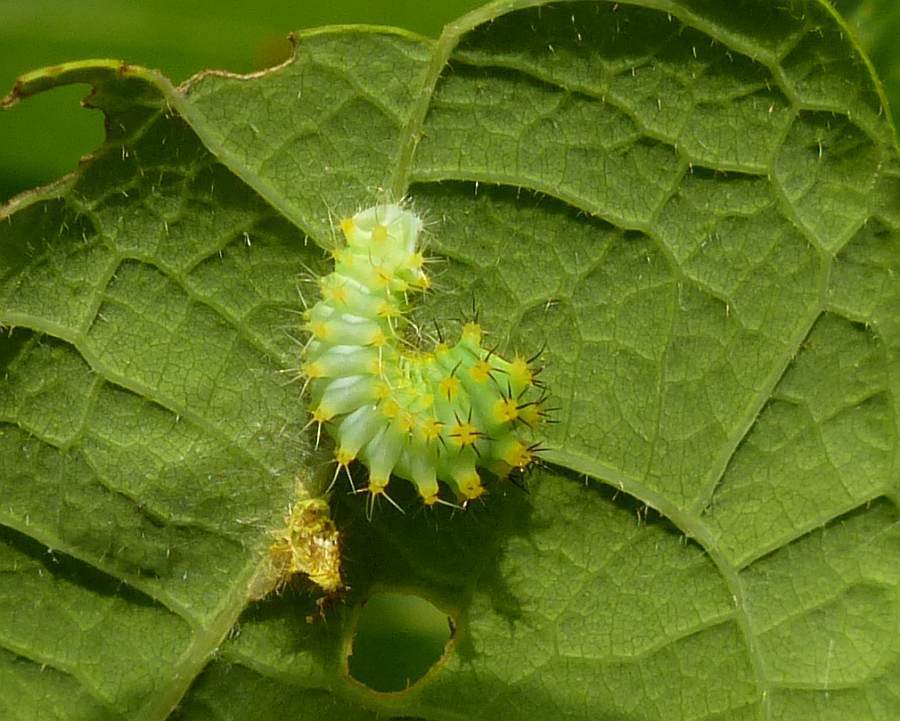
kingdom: Animalia
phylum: Arthropoda
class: Insecta
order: Lepidoptera
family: Saturniidae
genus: Antheraea
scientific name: Antheraea polyphemus
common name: Polyphemus moth
